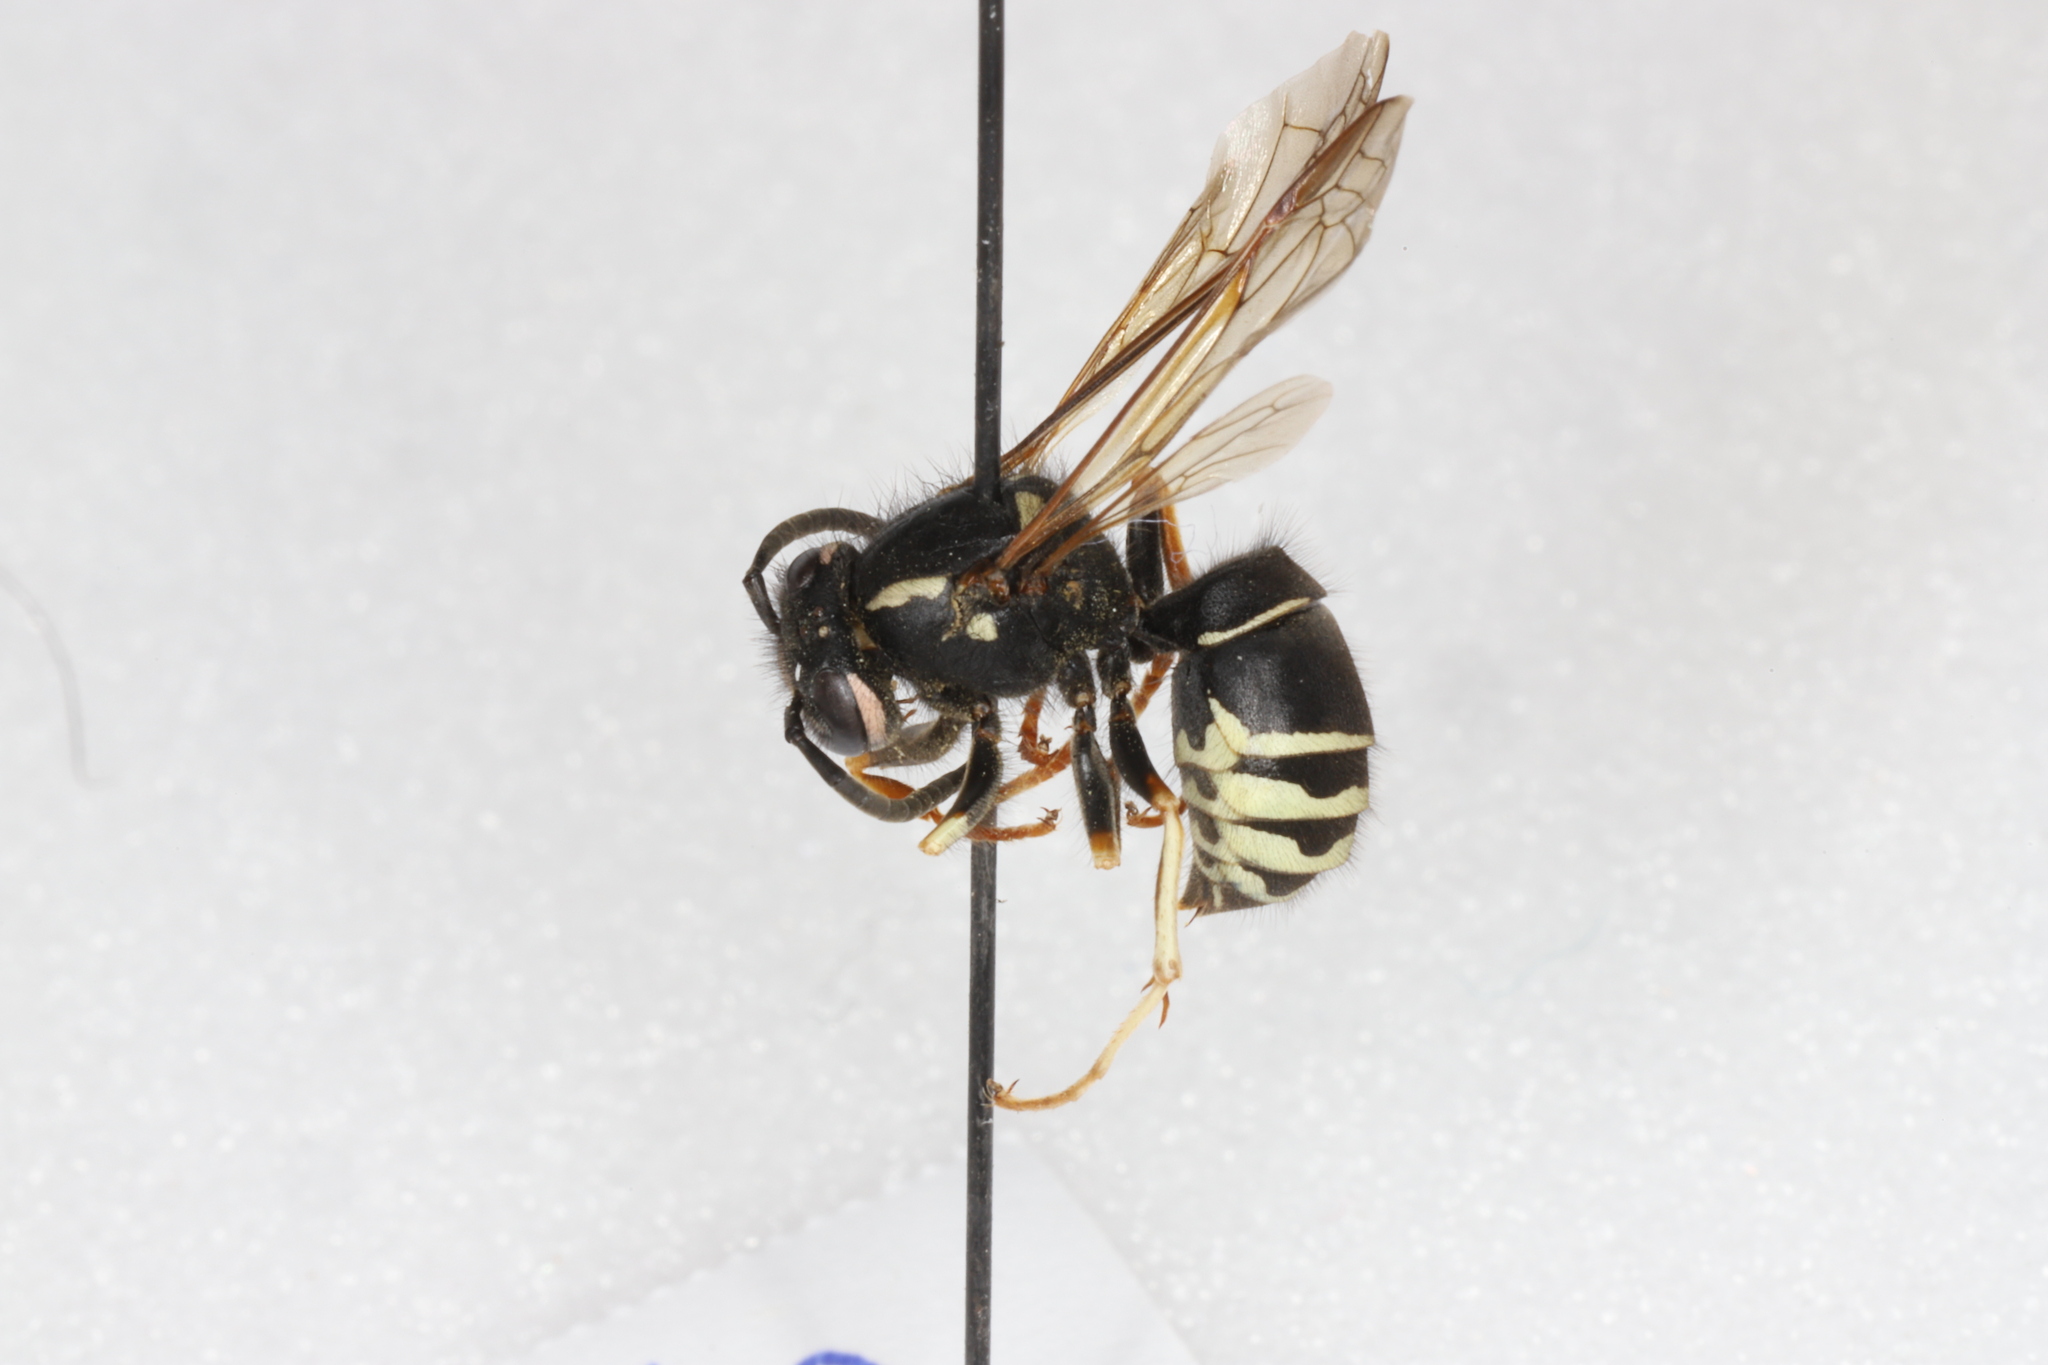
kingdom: Animalia
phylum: Arthropoda
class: Insecta
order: Hymenoptera
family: Vespidae
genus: Vespula
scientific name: Vespula consobrina
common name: Blackjacket
